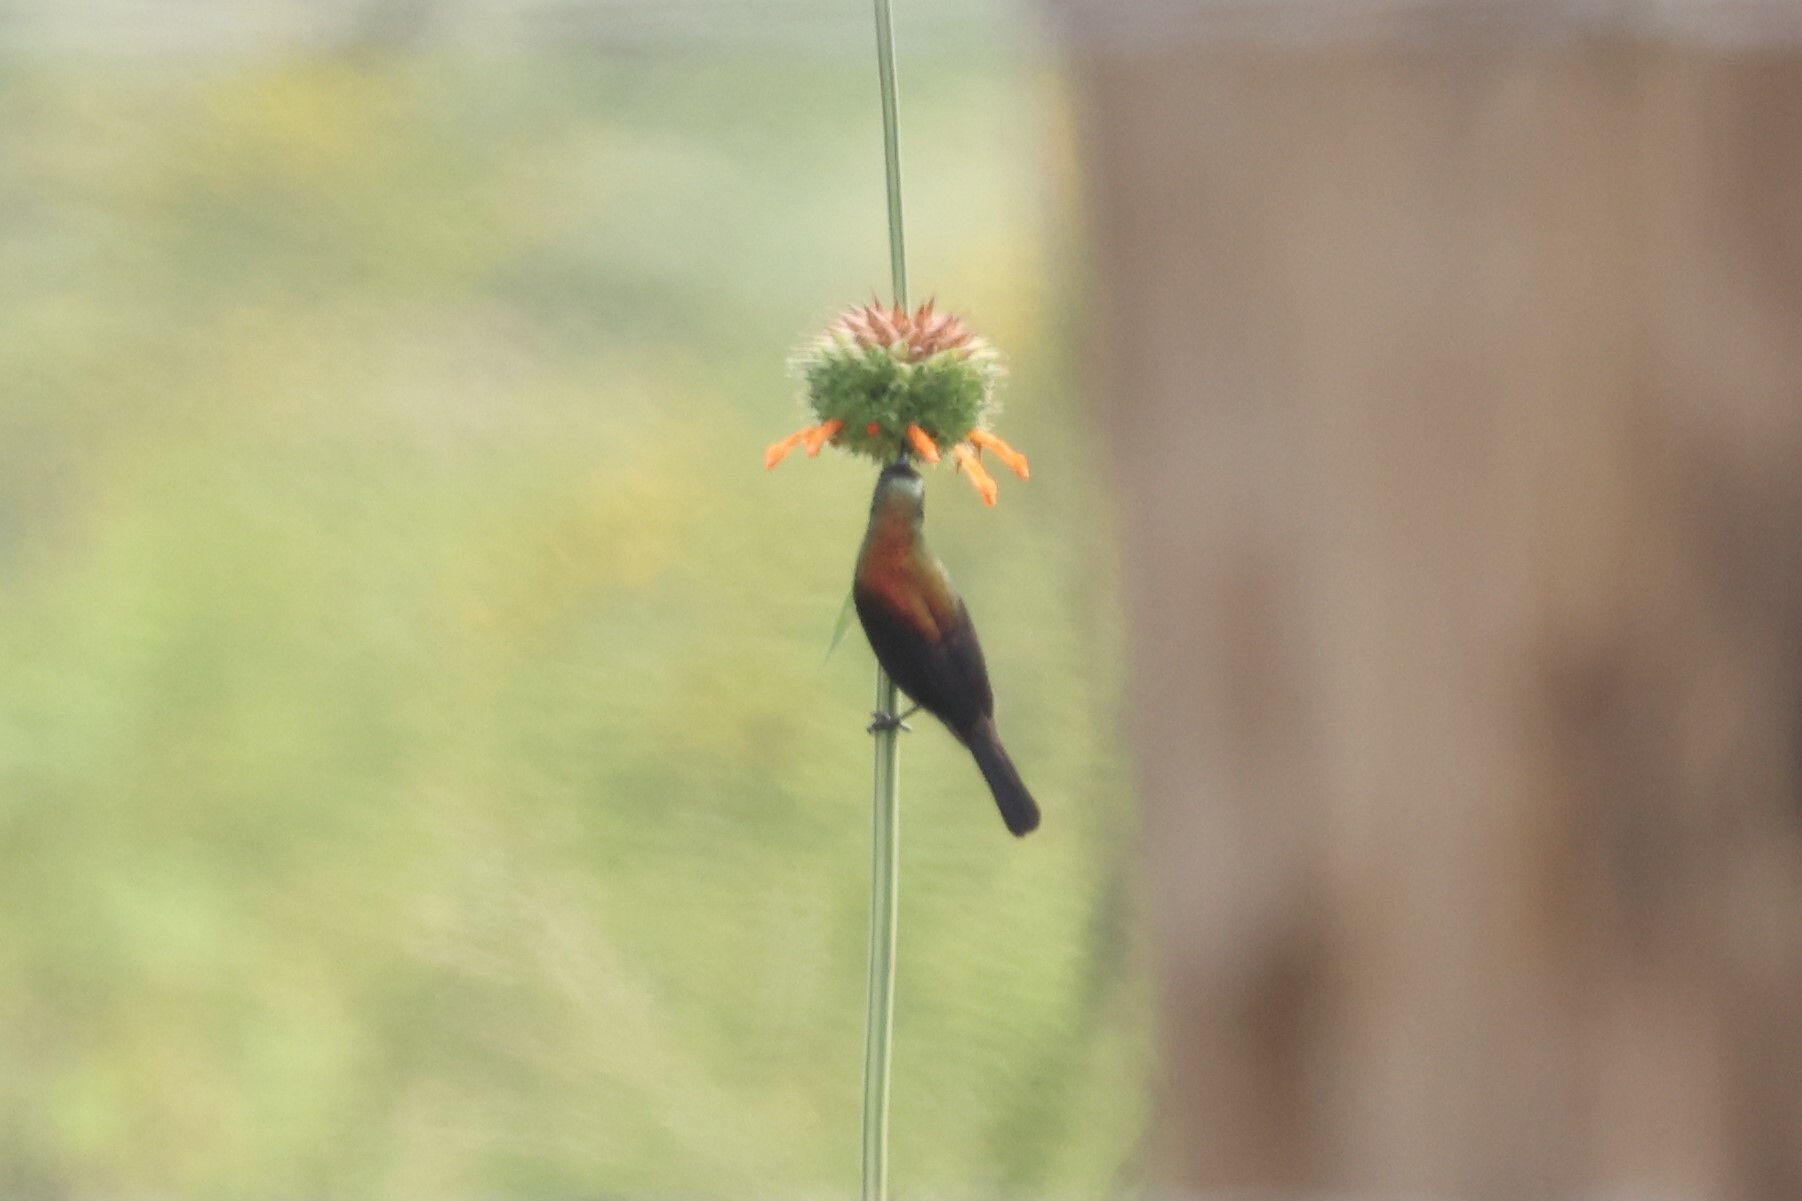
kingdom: Animalia
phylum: Chordata
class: Aves
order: Passeriformes
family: Nectariniidae
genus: Cinnyris
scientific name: Cinnyris cupreus
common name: Copper sunbird
